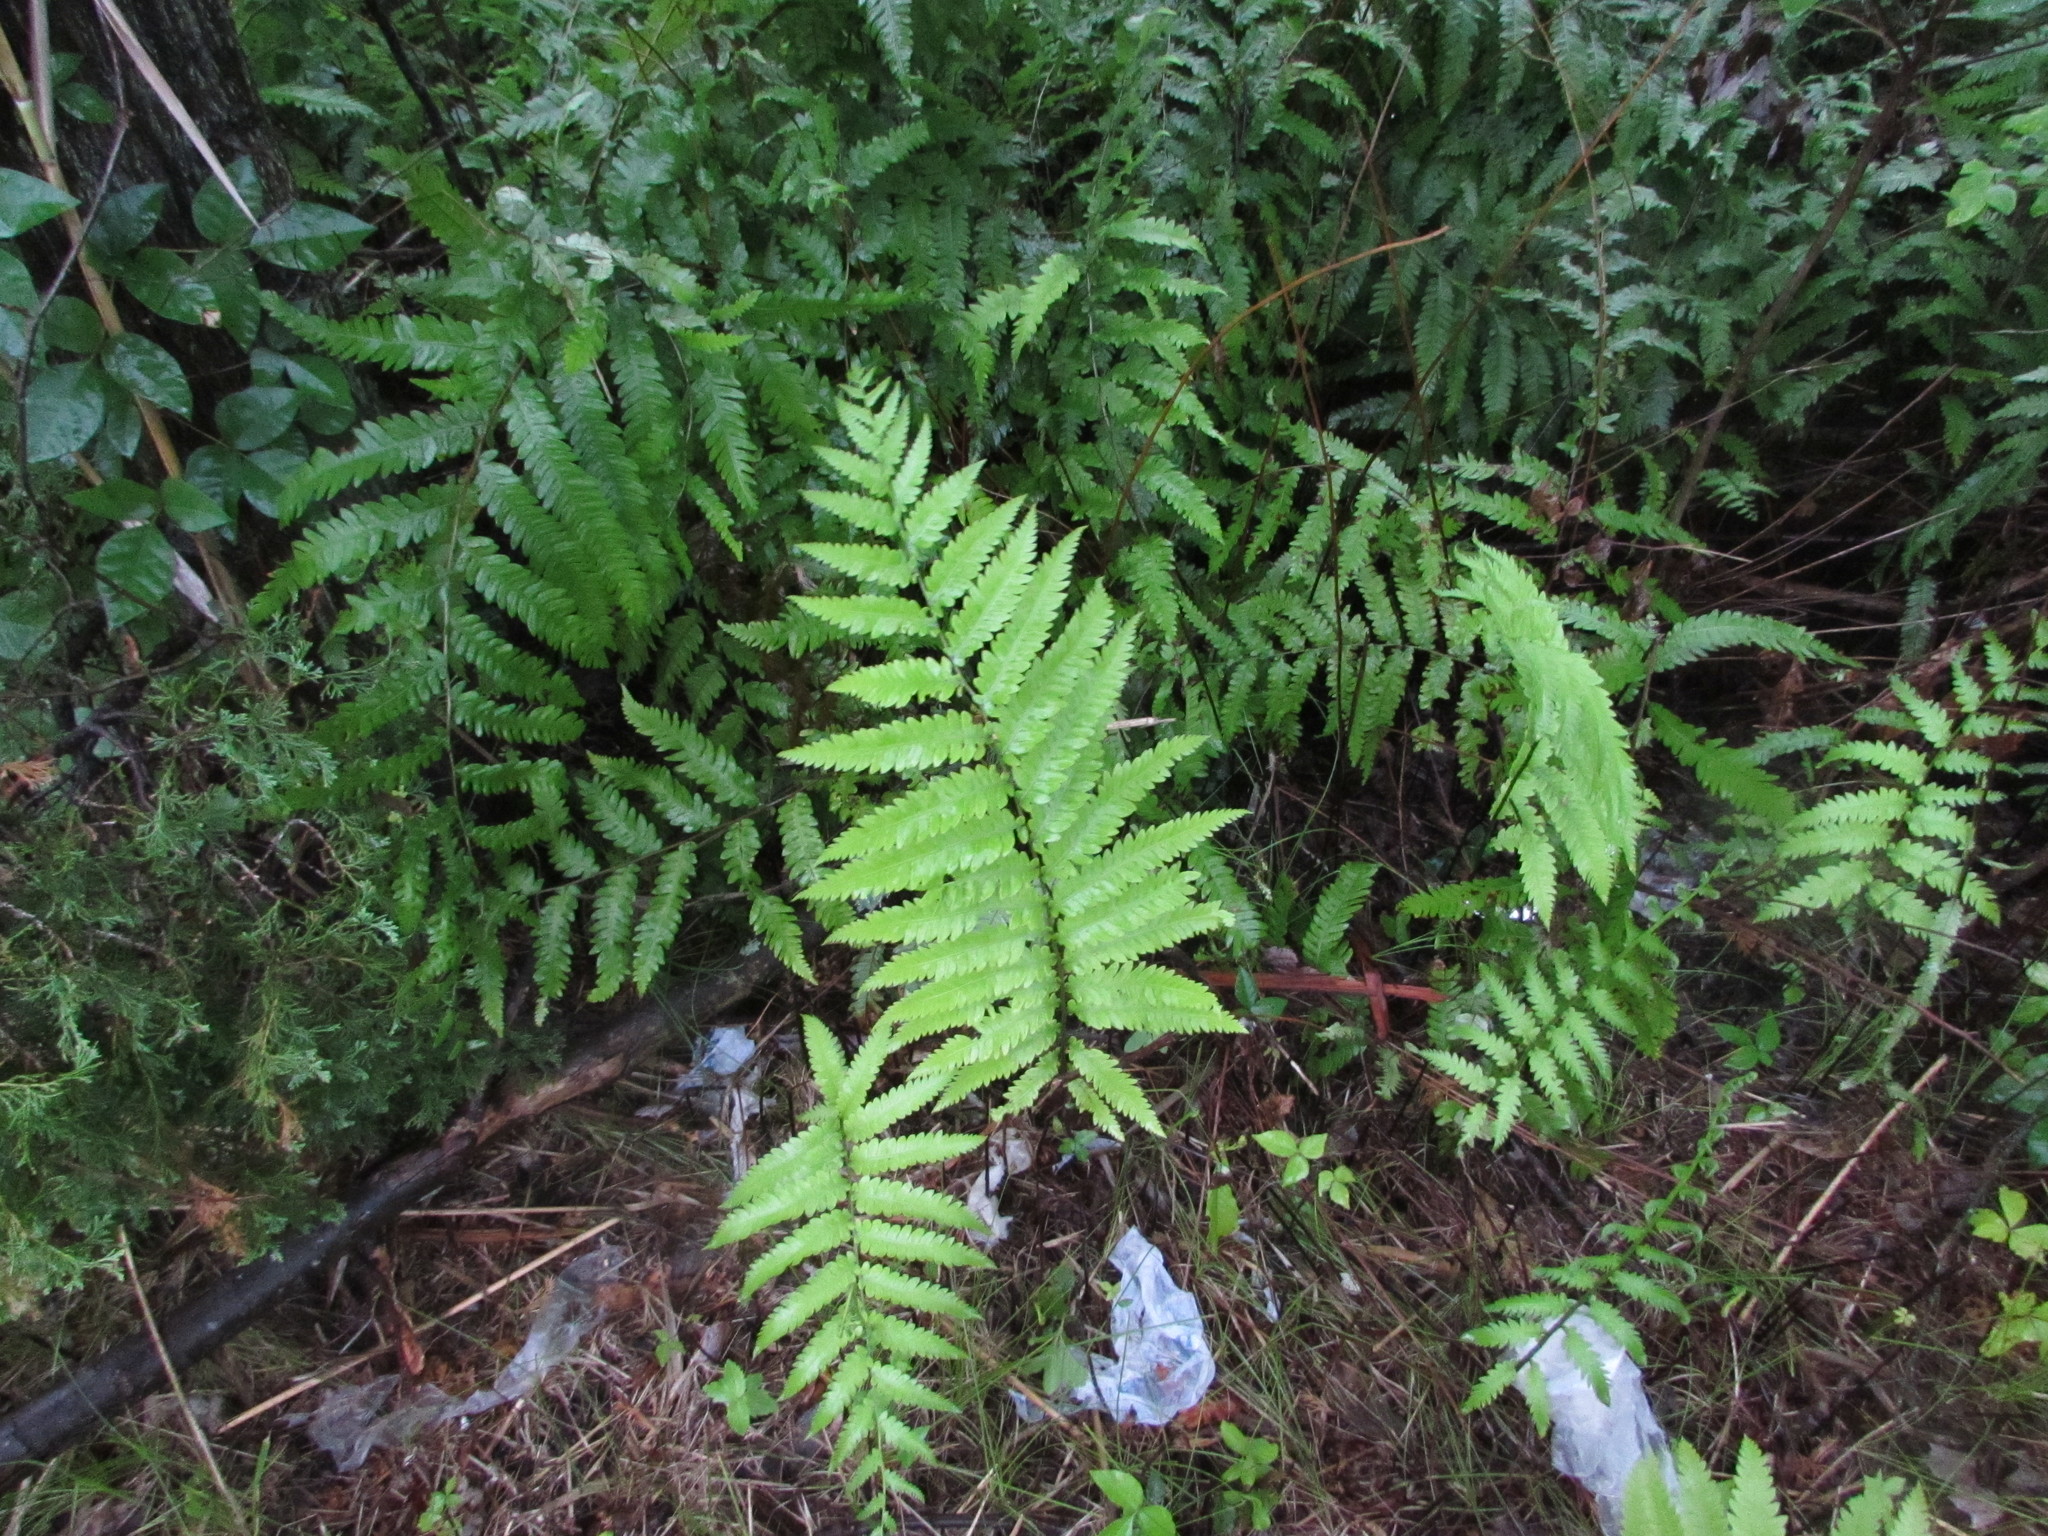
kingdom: Plantae
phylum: Tracheophyta
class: Polypodiopsida
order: Polypodiales
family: Blechnaceae
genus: Anchistea
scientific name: Anchistea virginica
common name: Virginia chain fern
